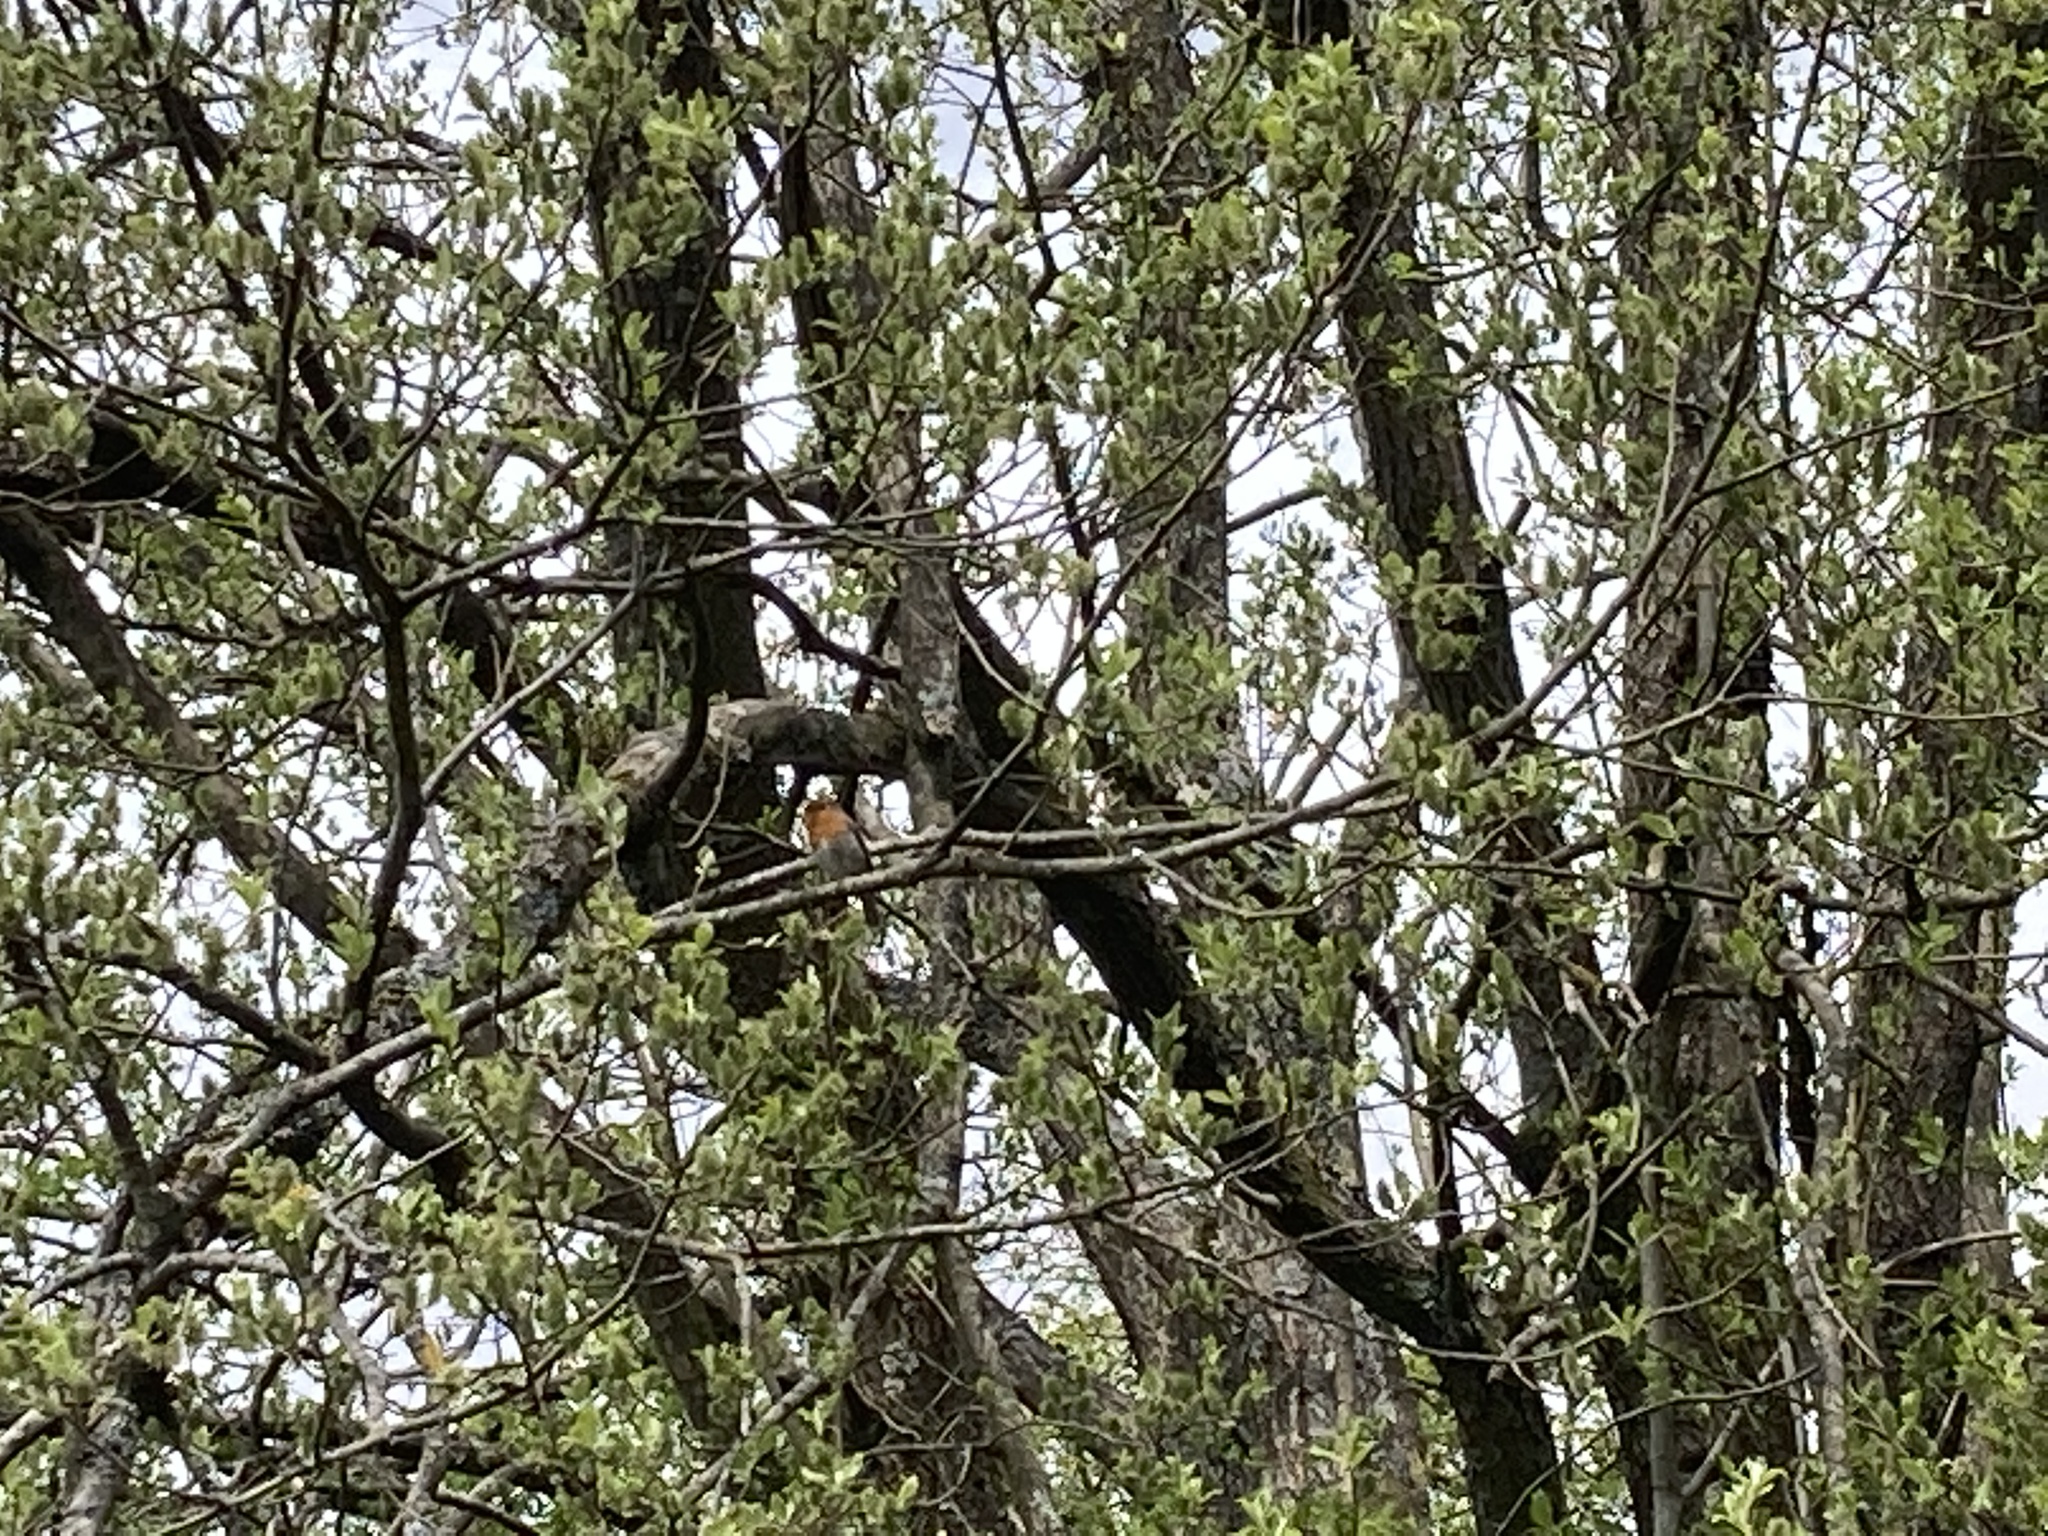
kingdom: Animalia
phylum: Chordata
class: Aves
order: Passeriformes
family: Muscicapidae
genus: Erithacus
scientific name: Erithacus rubecula
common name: European robin
